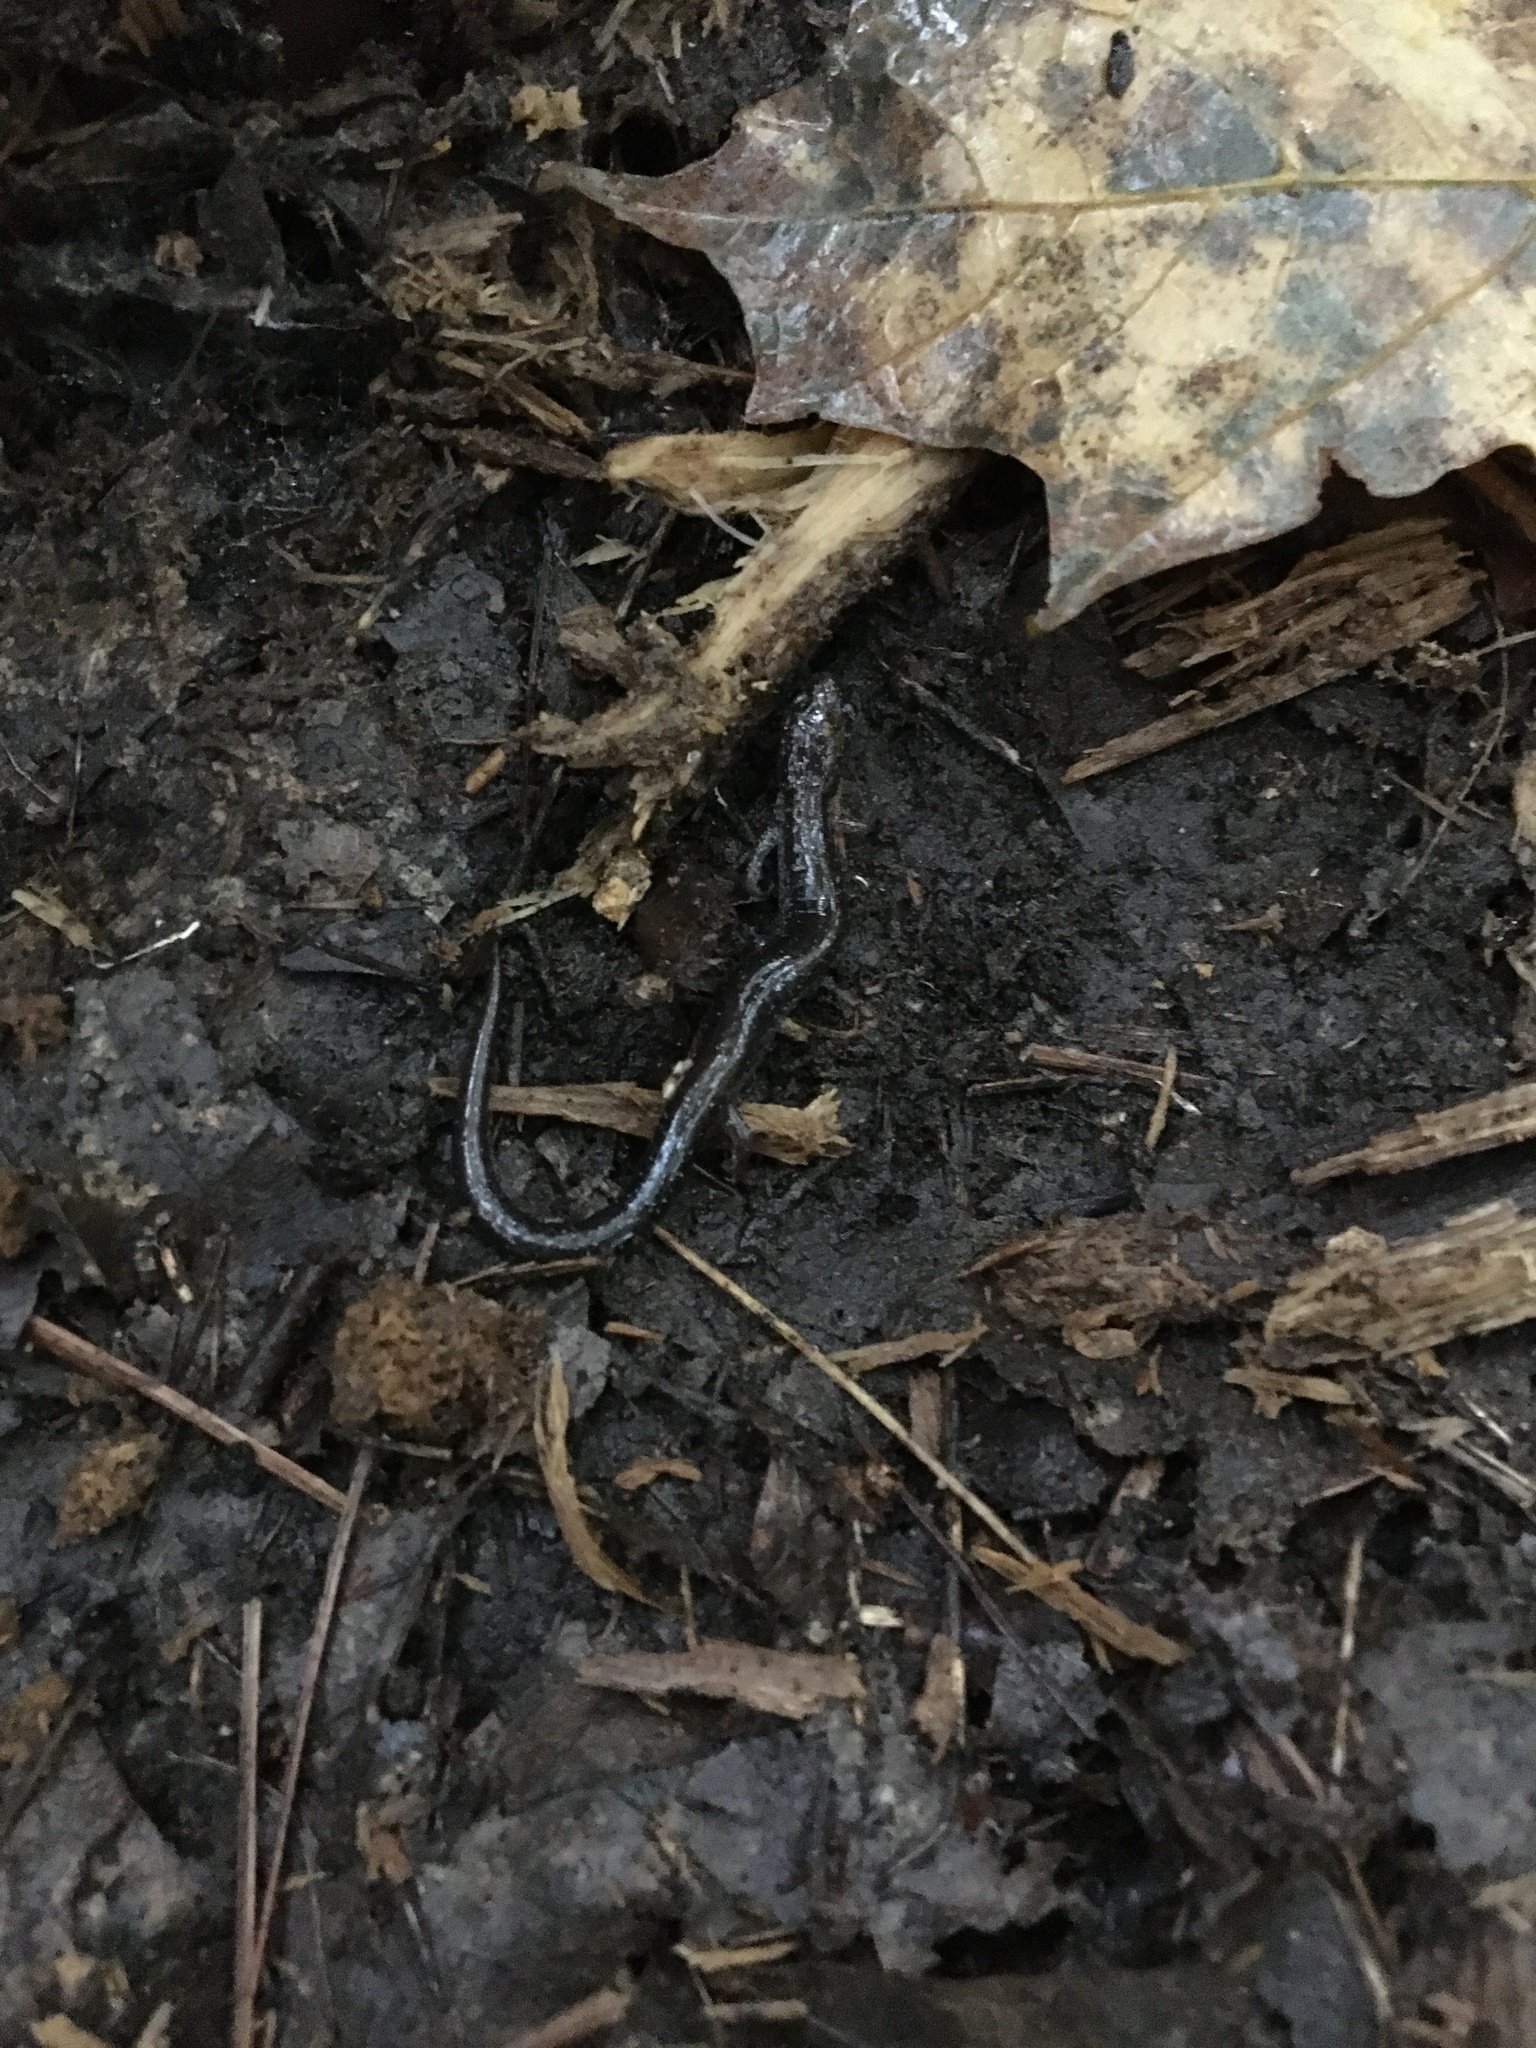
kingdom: Animalia
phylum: Chordata
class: Amphibia
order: Caudata
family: Plethodontidae
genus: Plethodon
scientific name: Plethodon cinereus
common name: Redback salamander
